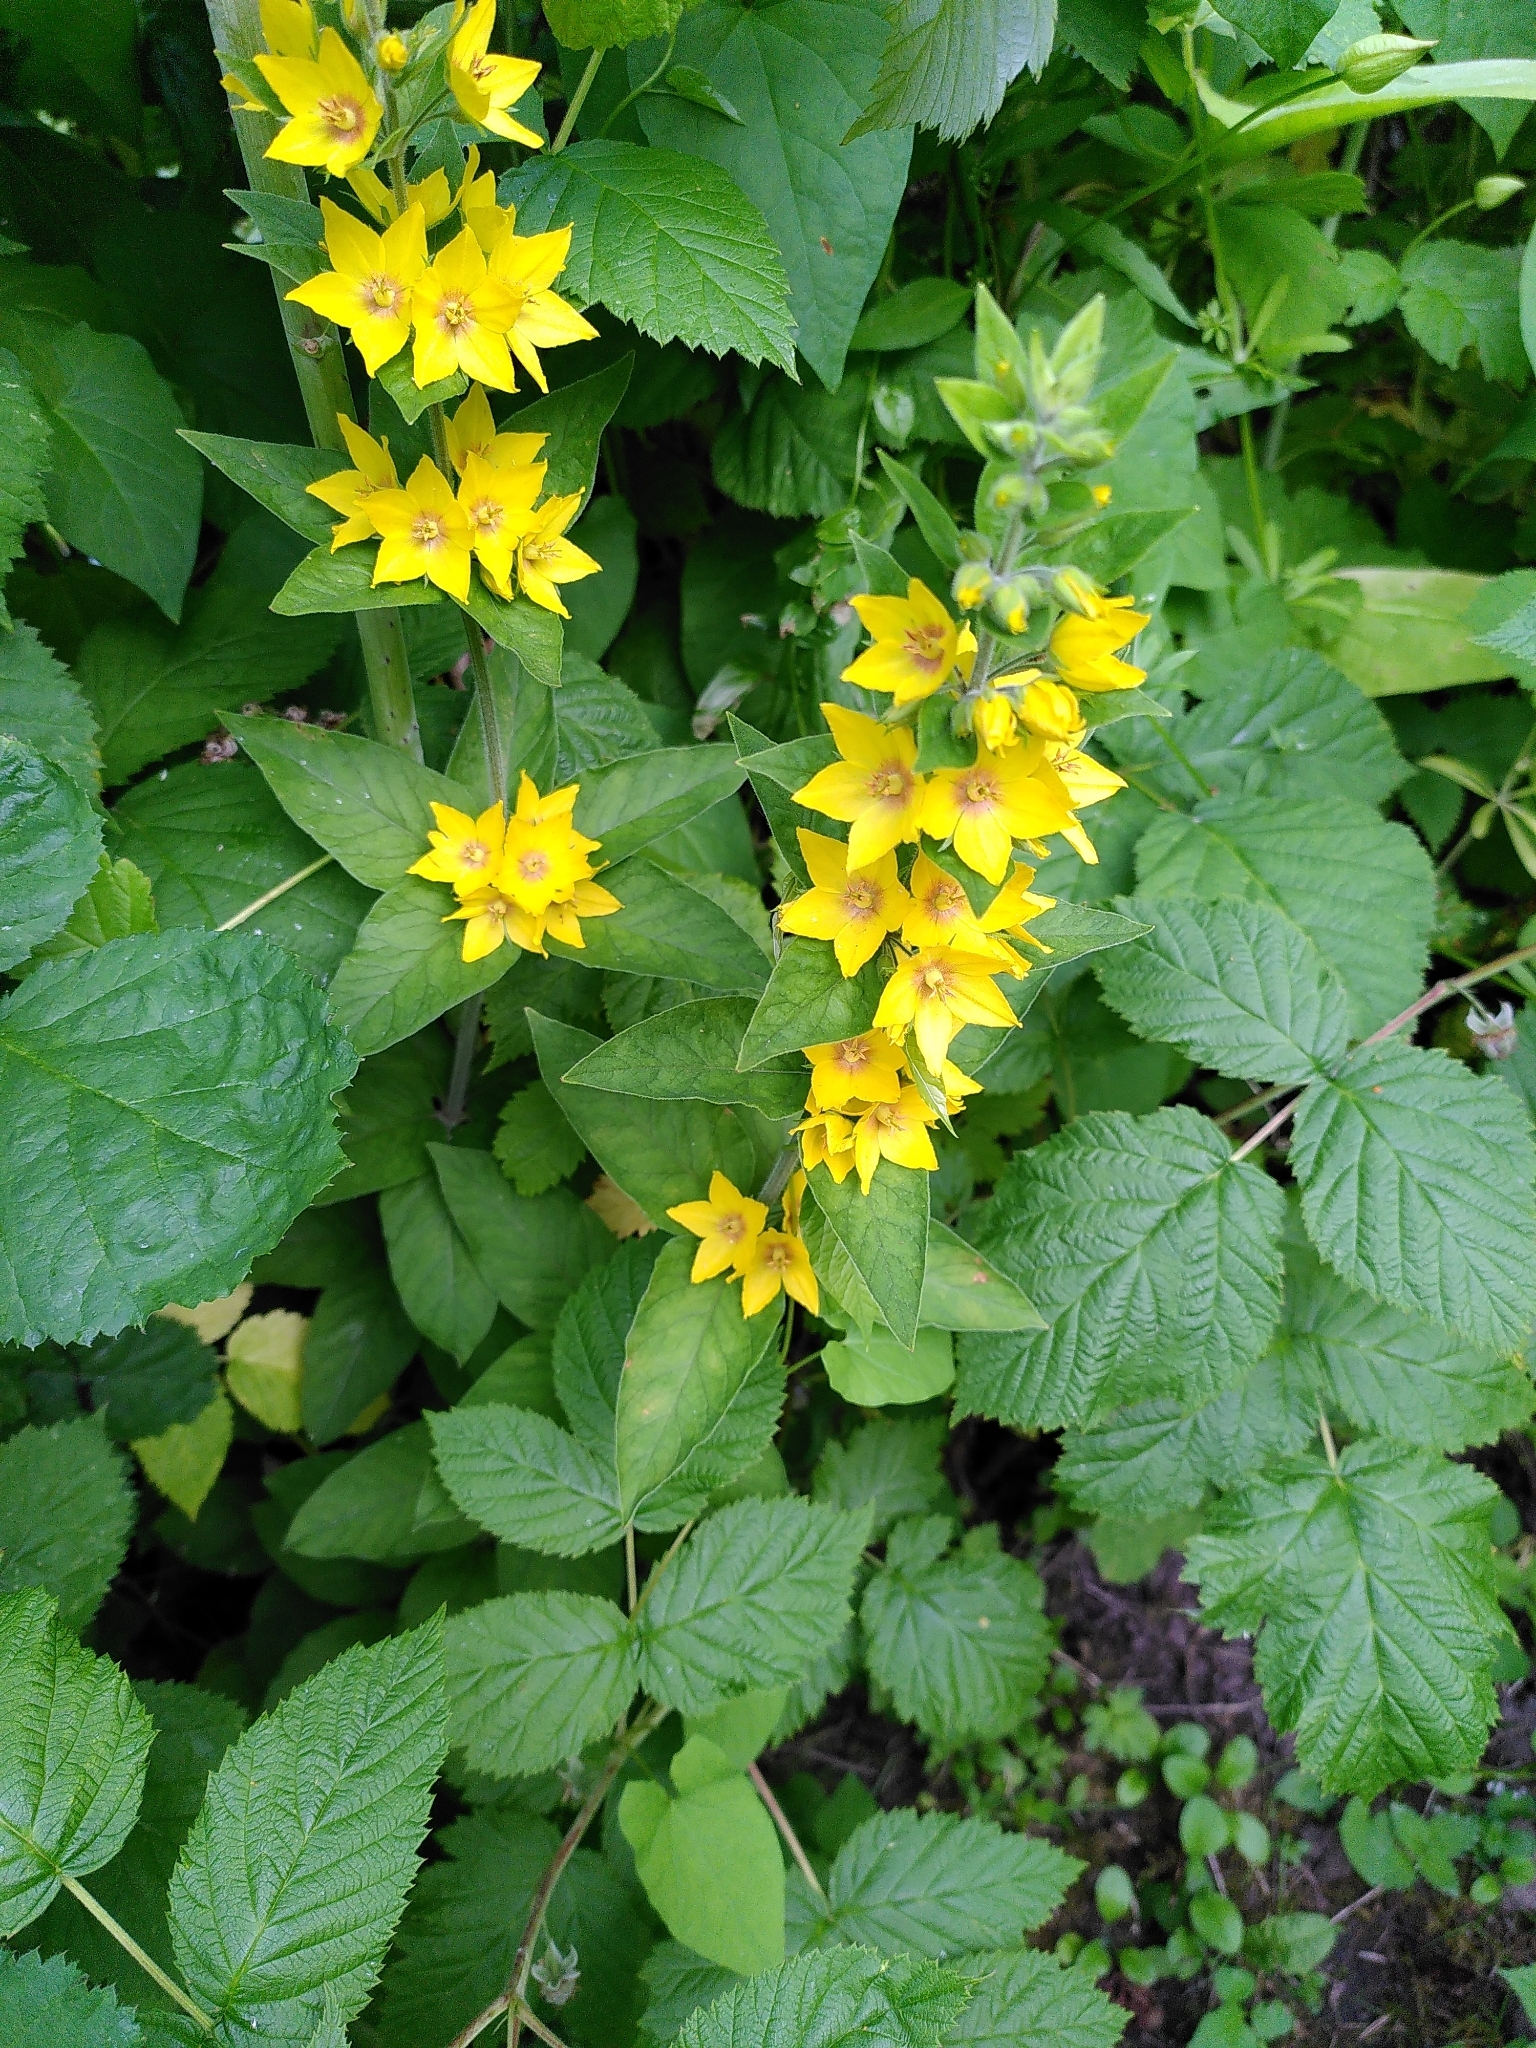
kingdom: Plantae
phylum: Tracheophyta
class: Magnoliopsida
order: Ericales
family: Primulaceae
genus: Lysimachia
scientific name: Lysimachia punctata
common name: Dotted loosestrife
